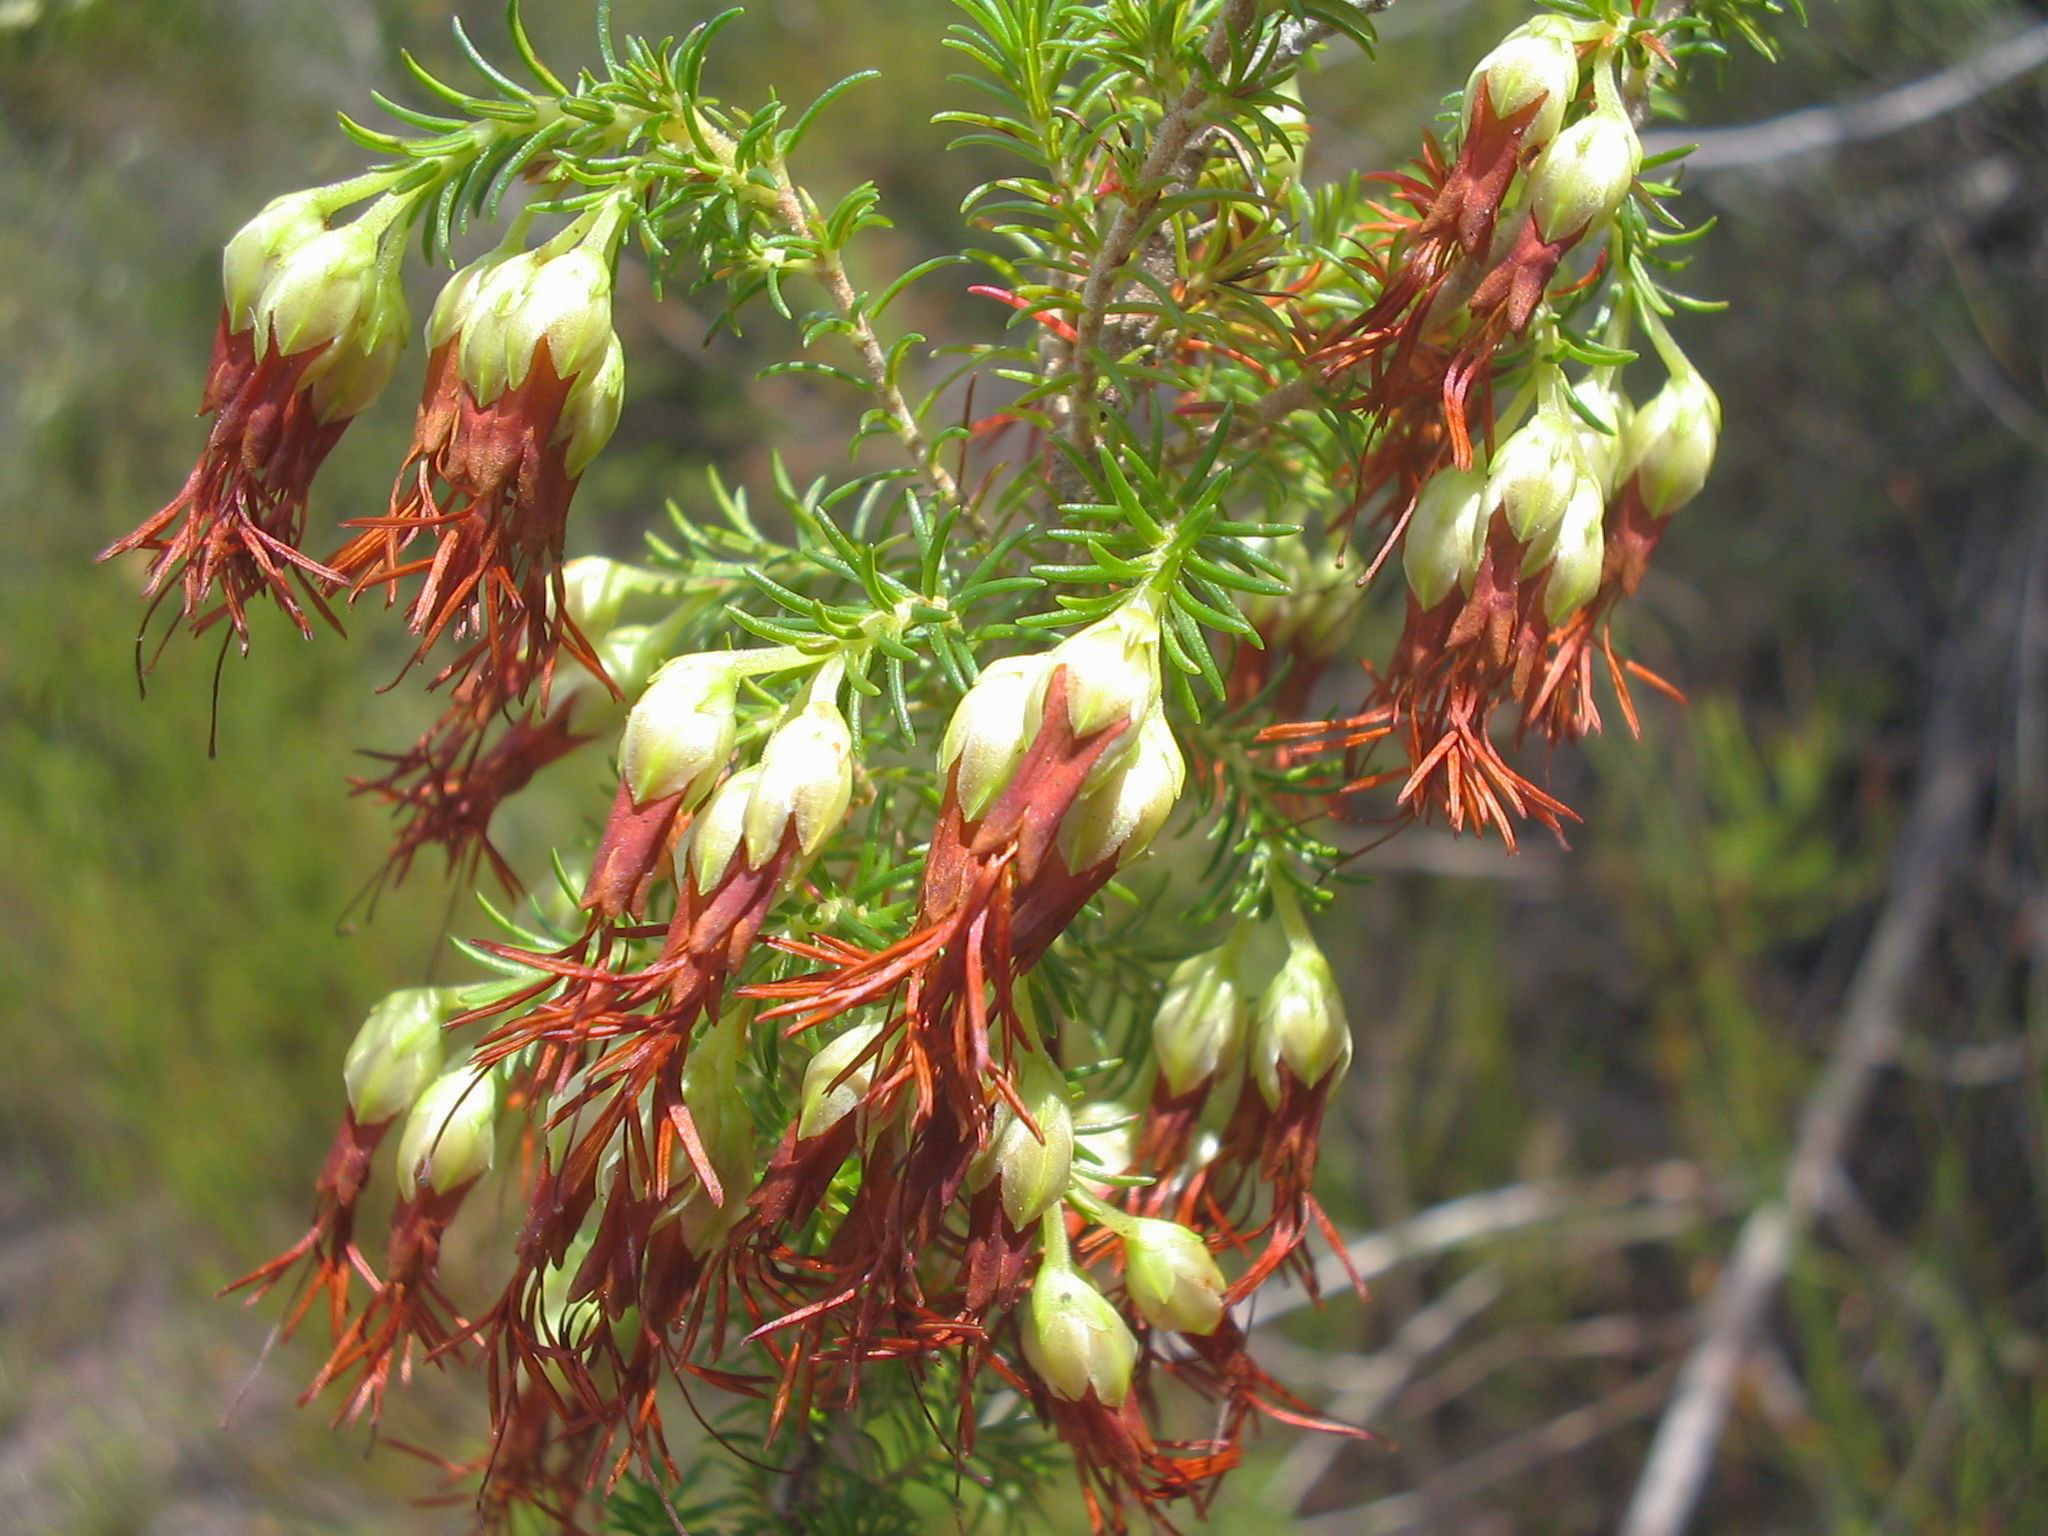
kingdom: Plantae
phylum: Tracheophyta
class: Magnoliopsida
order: Ericales
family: Ericaceae
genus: Erica
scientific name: Erica intermedia
